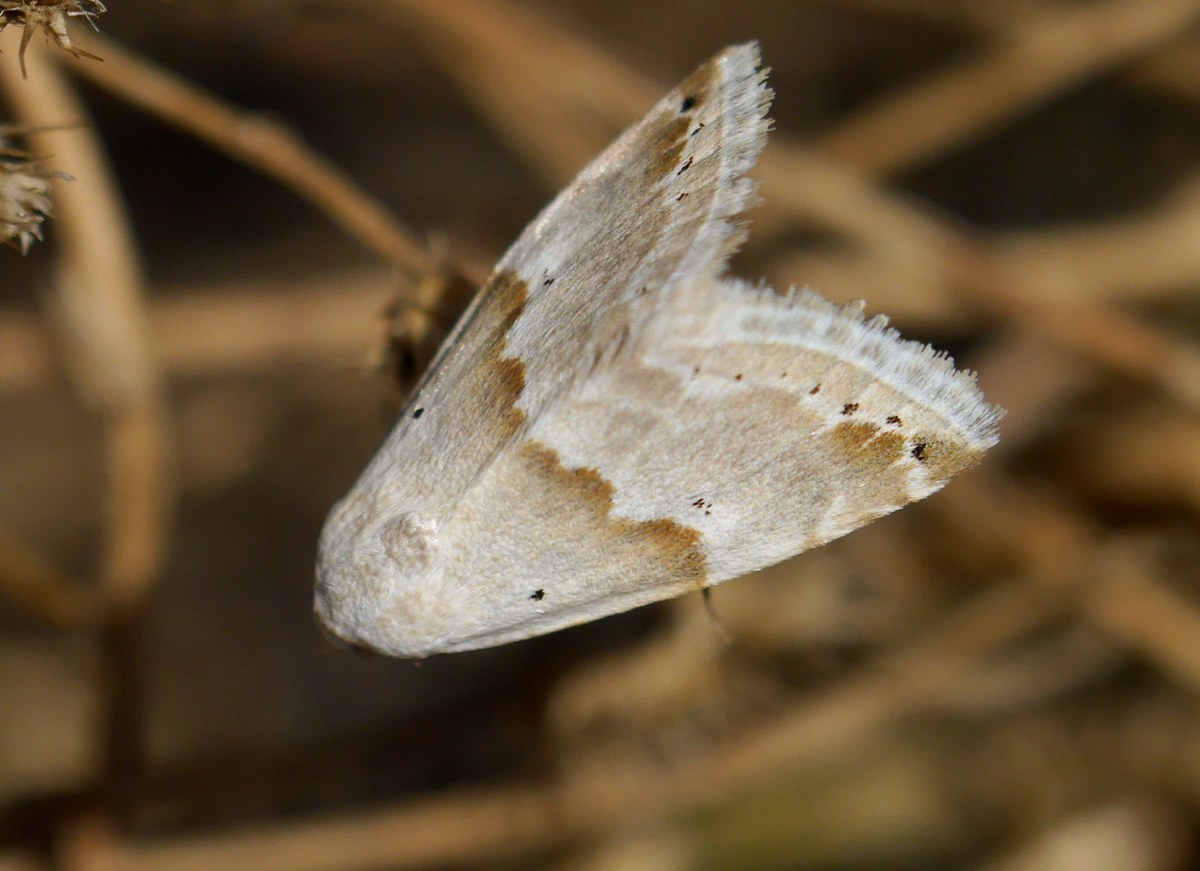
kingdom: Animalia
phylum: Arthropoda
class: Insecta
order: Lepidoptera
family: Noctuidae
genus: Eublemma
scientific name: Eublemma amoena
